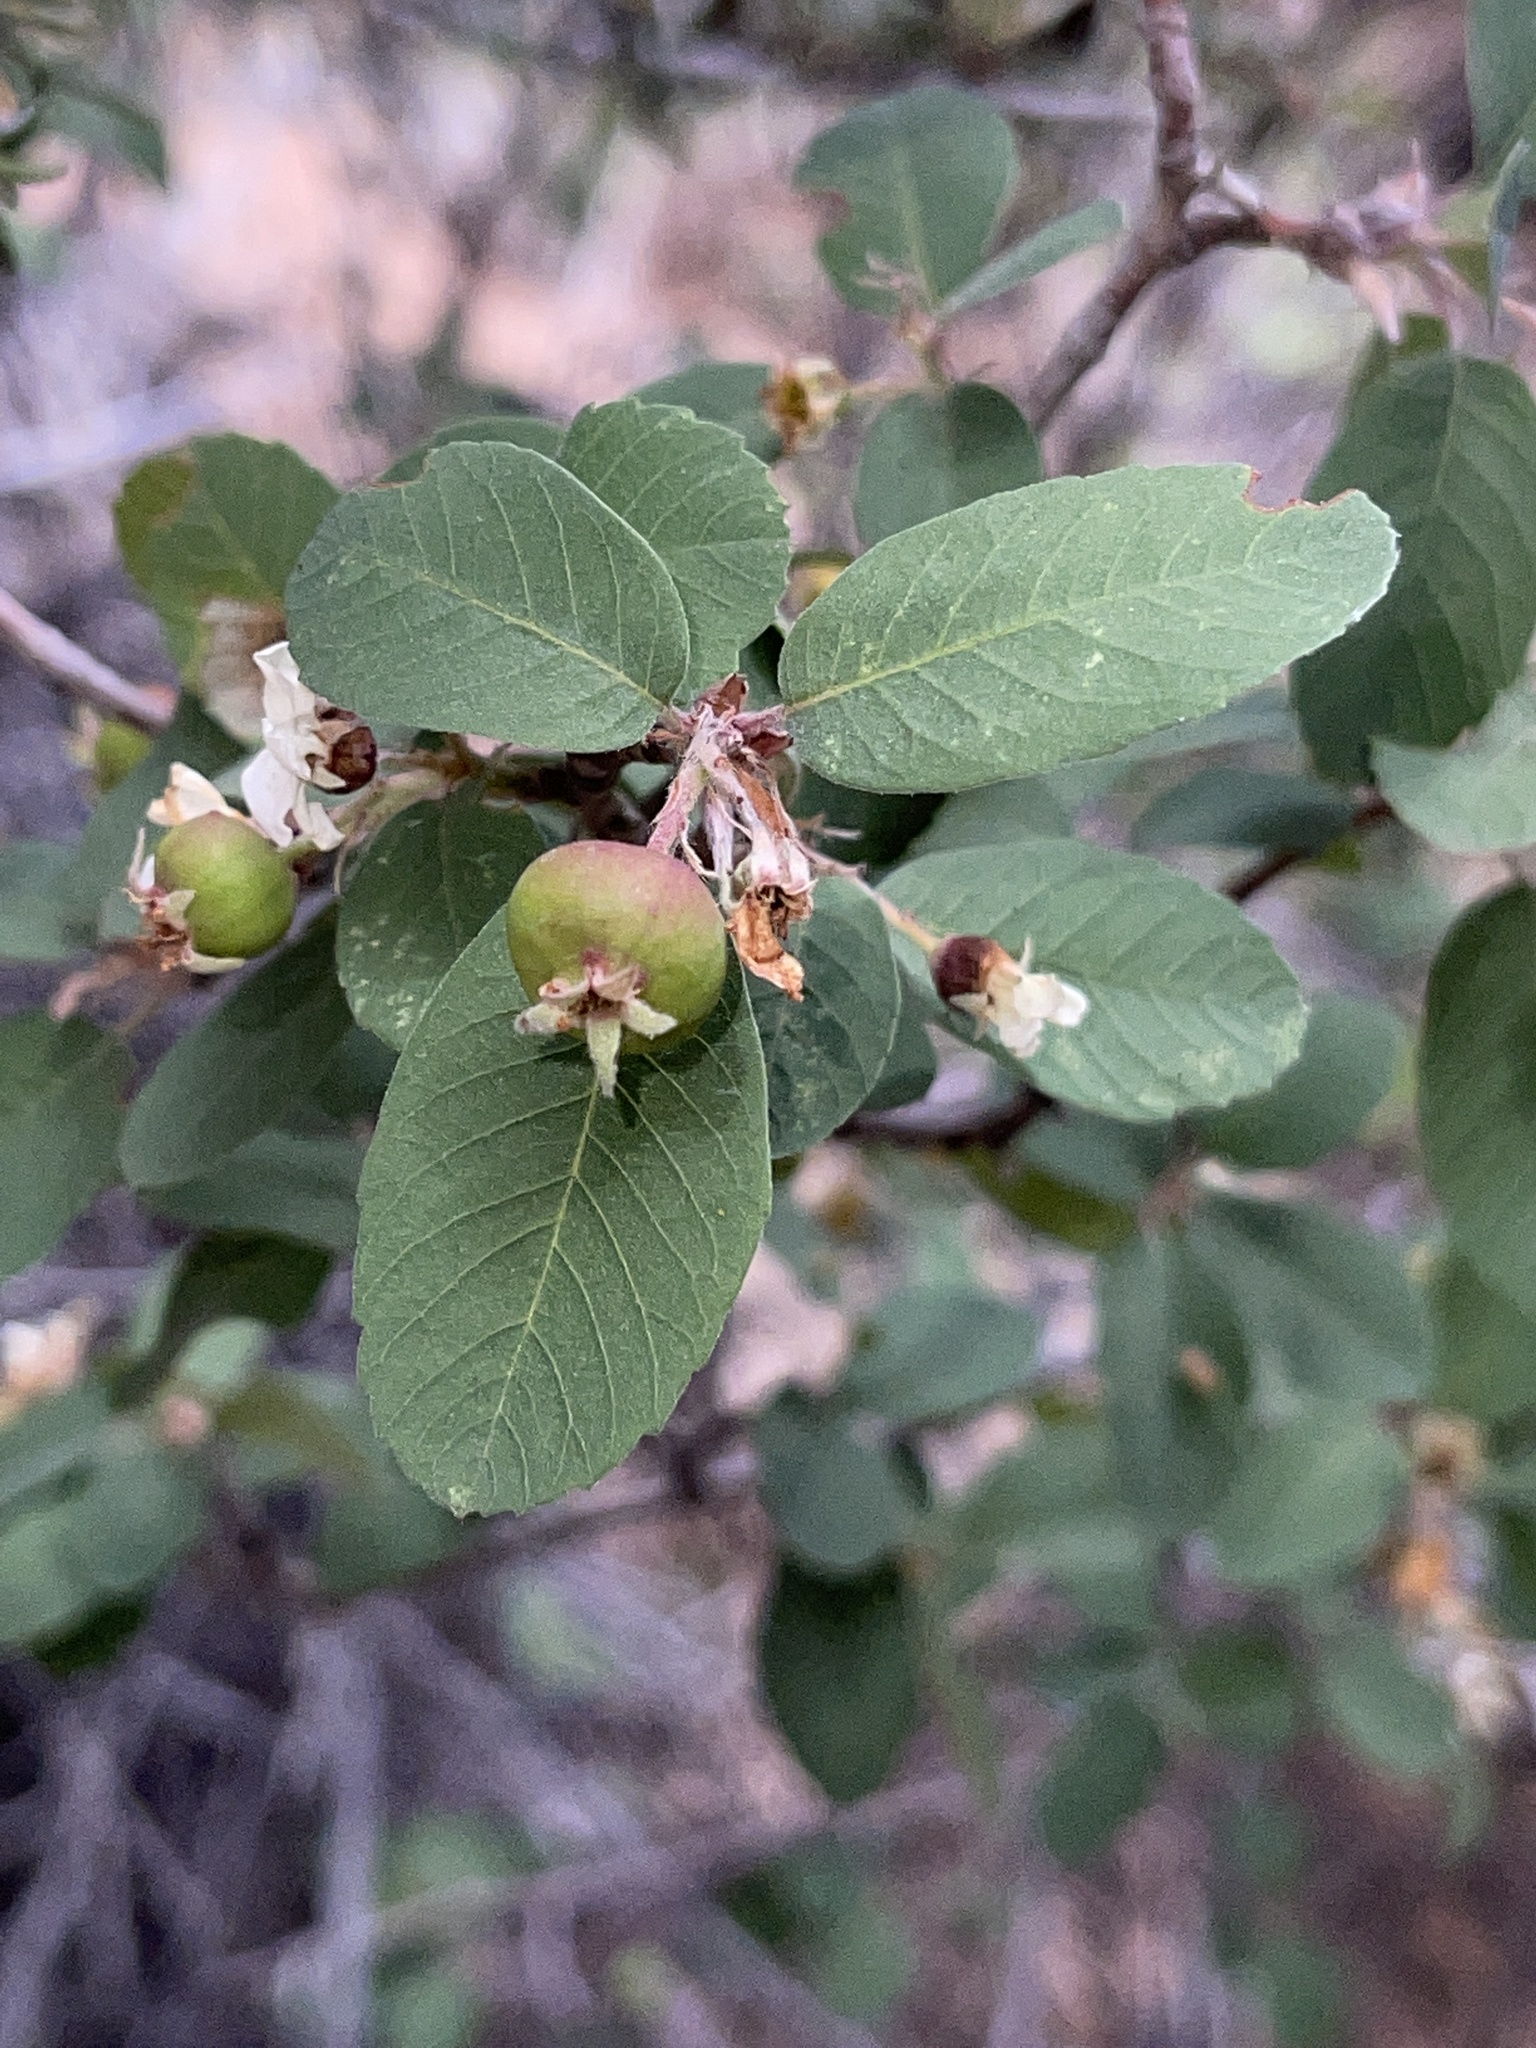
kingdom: Plantae
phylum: Tracheophyta
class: Magnoliopsida
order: Rosales
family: Rosaceae
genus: Amelanchier
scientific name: Amelanchier utahensis
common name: Utah serviceberry
